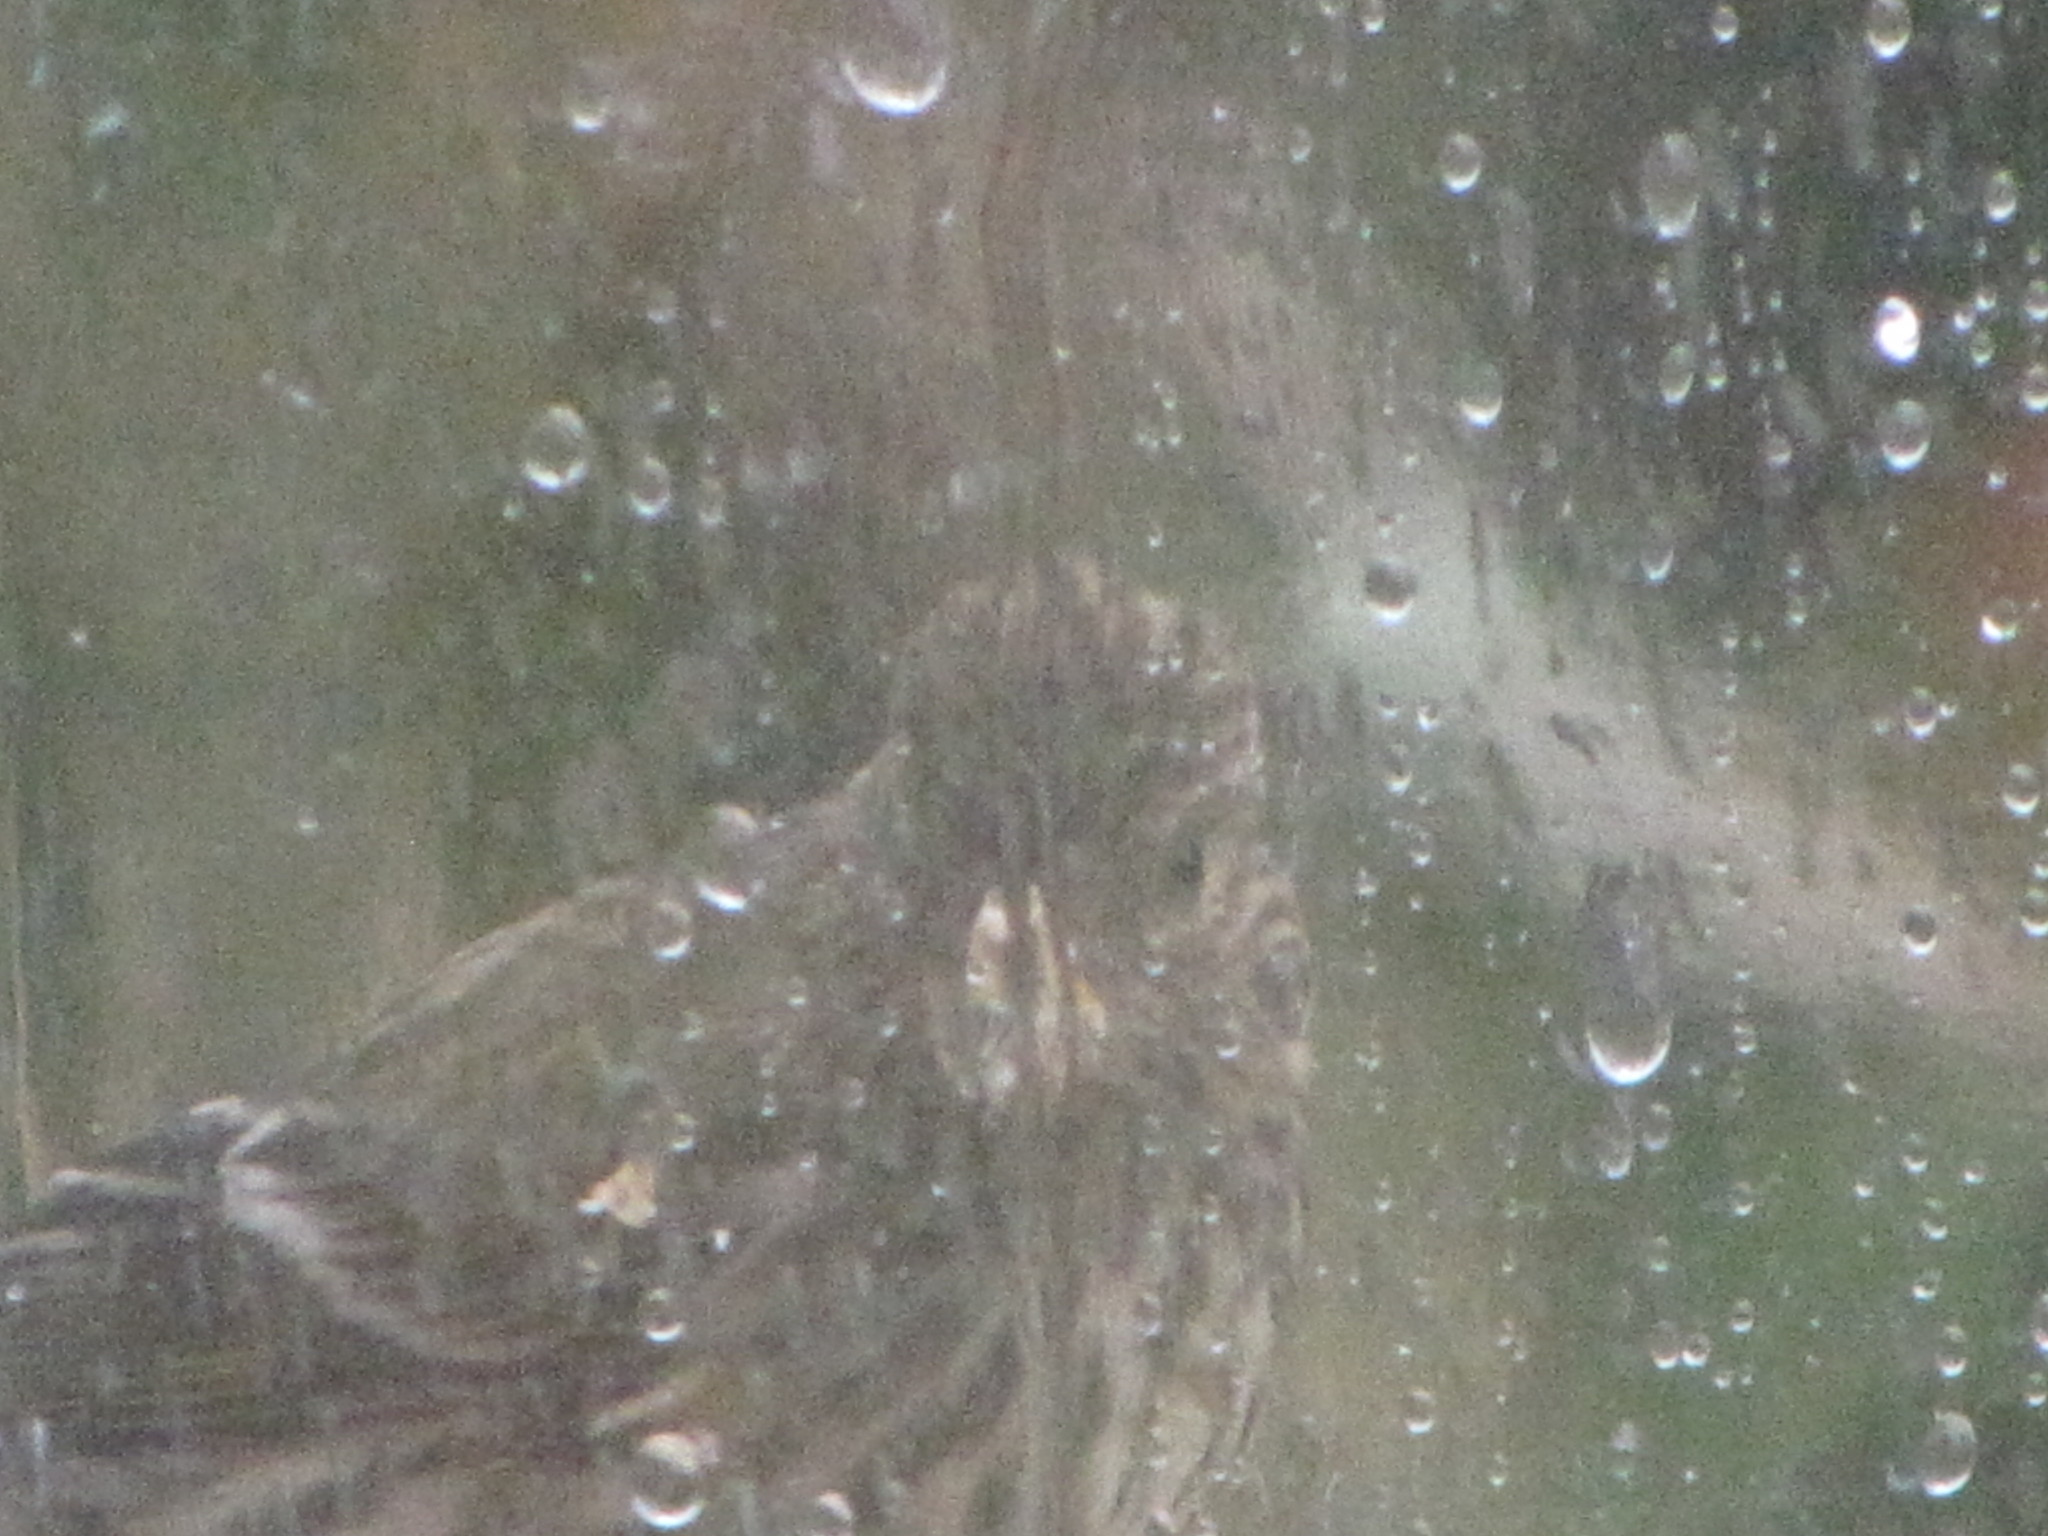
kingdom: Animalia
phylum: Chordata
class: Aves
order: Passeriformes
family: Fringillidae
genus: Spinus
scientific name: Spinus pinus
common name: Pine siskin
